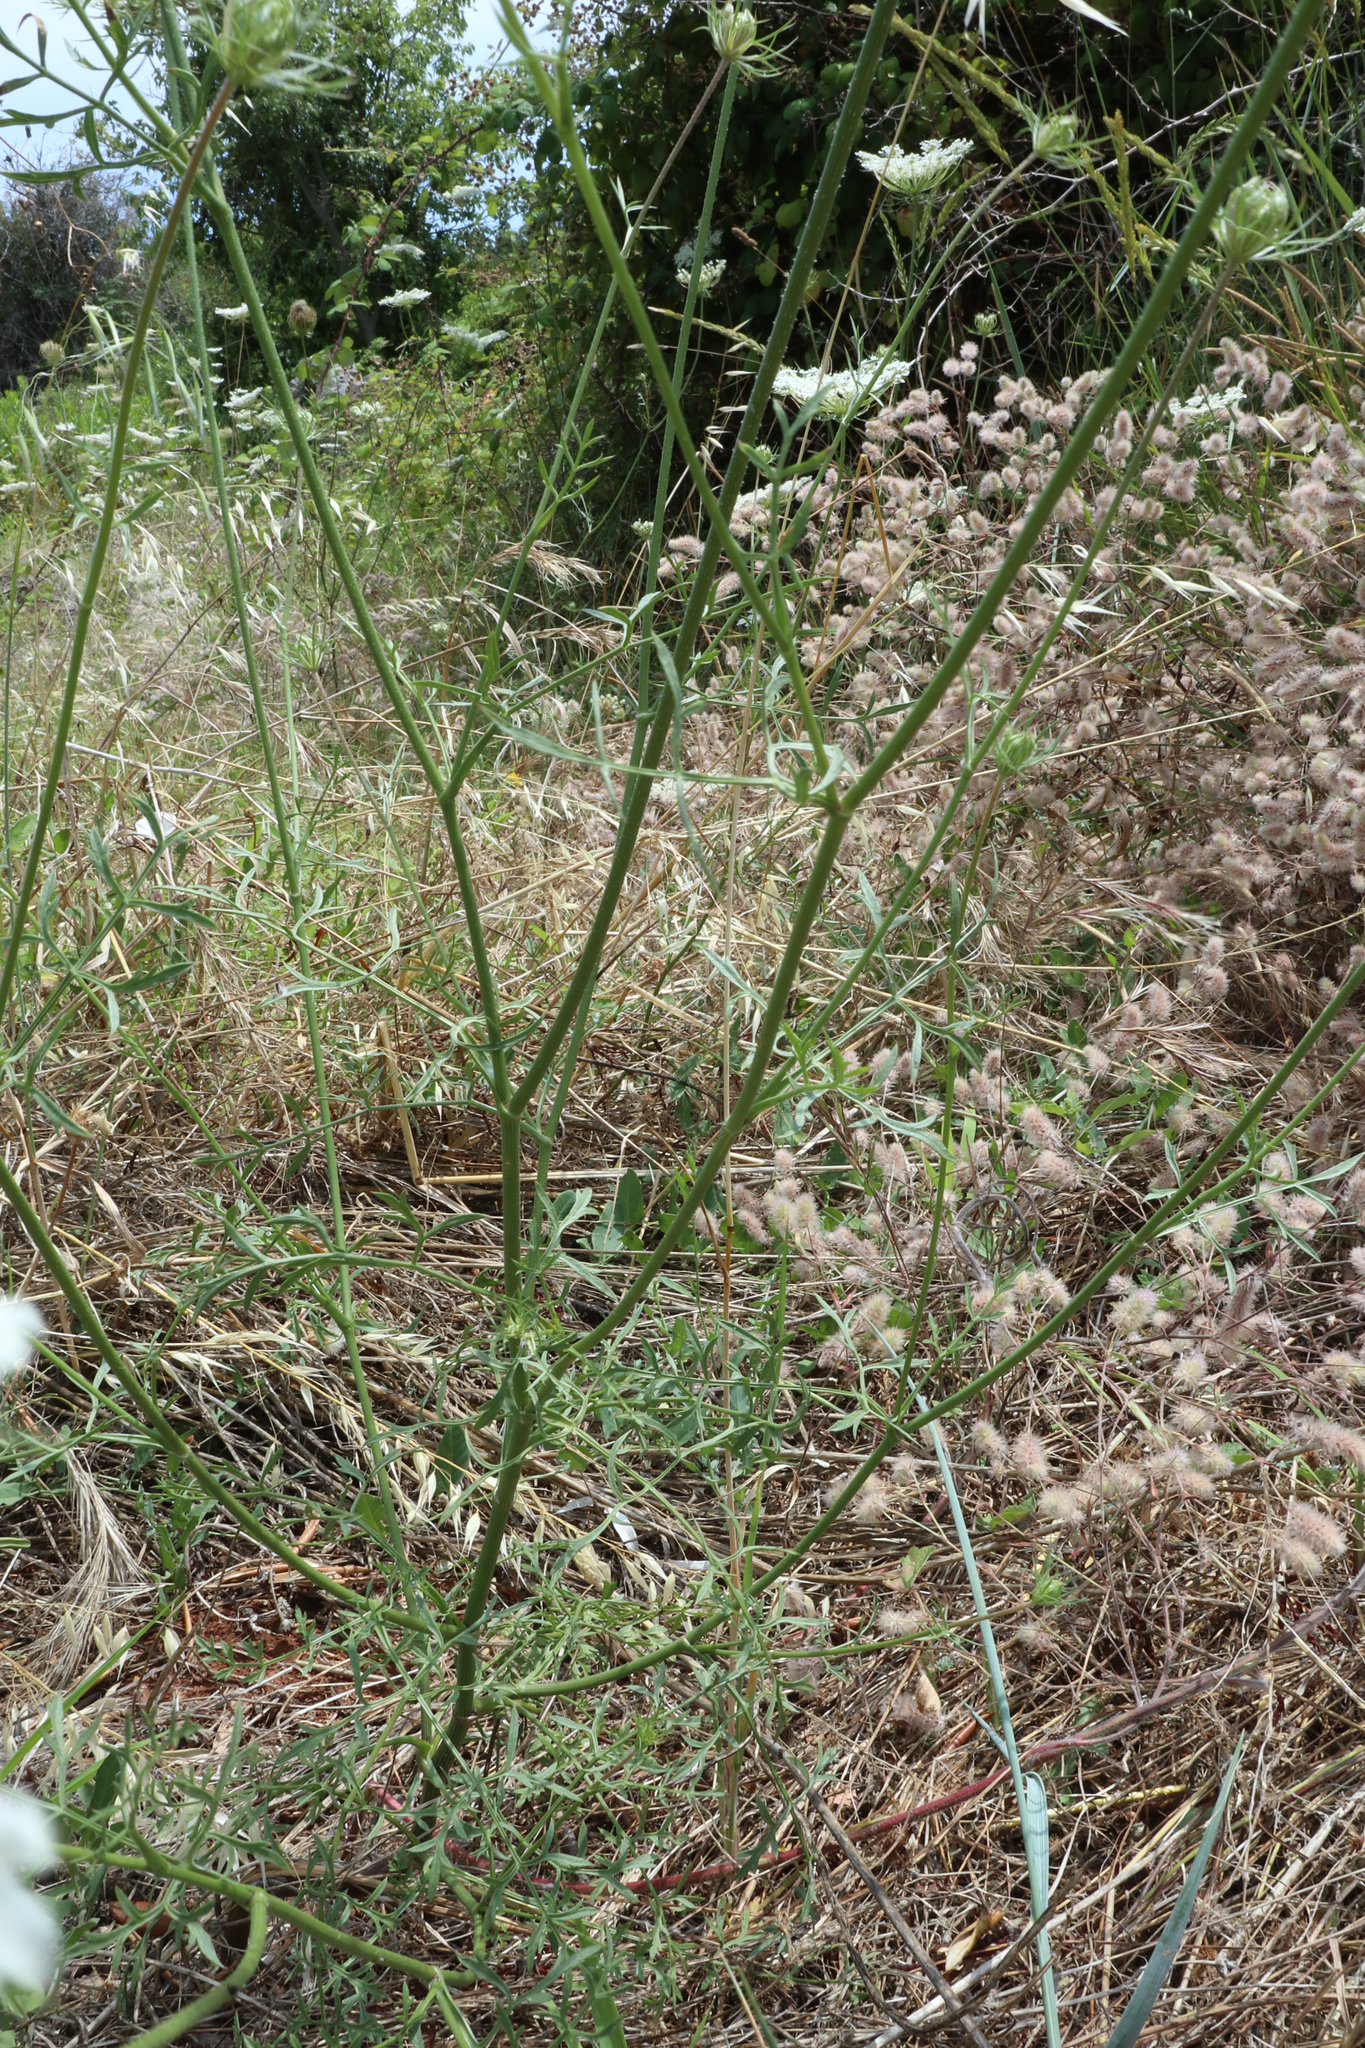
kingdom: Plantae
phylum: Tracheophyta
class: Magnoliopsida
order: Apiales
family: Apiaceae
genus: Daucus
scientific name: Daucus carota
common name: Wild carrot
